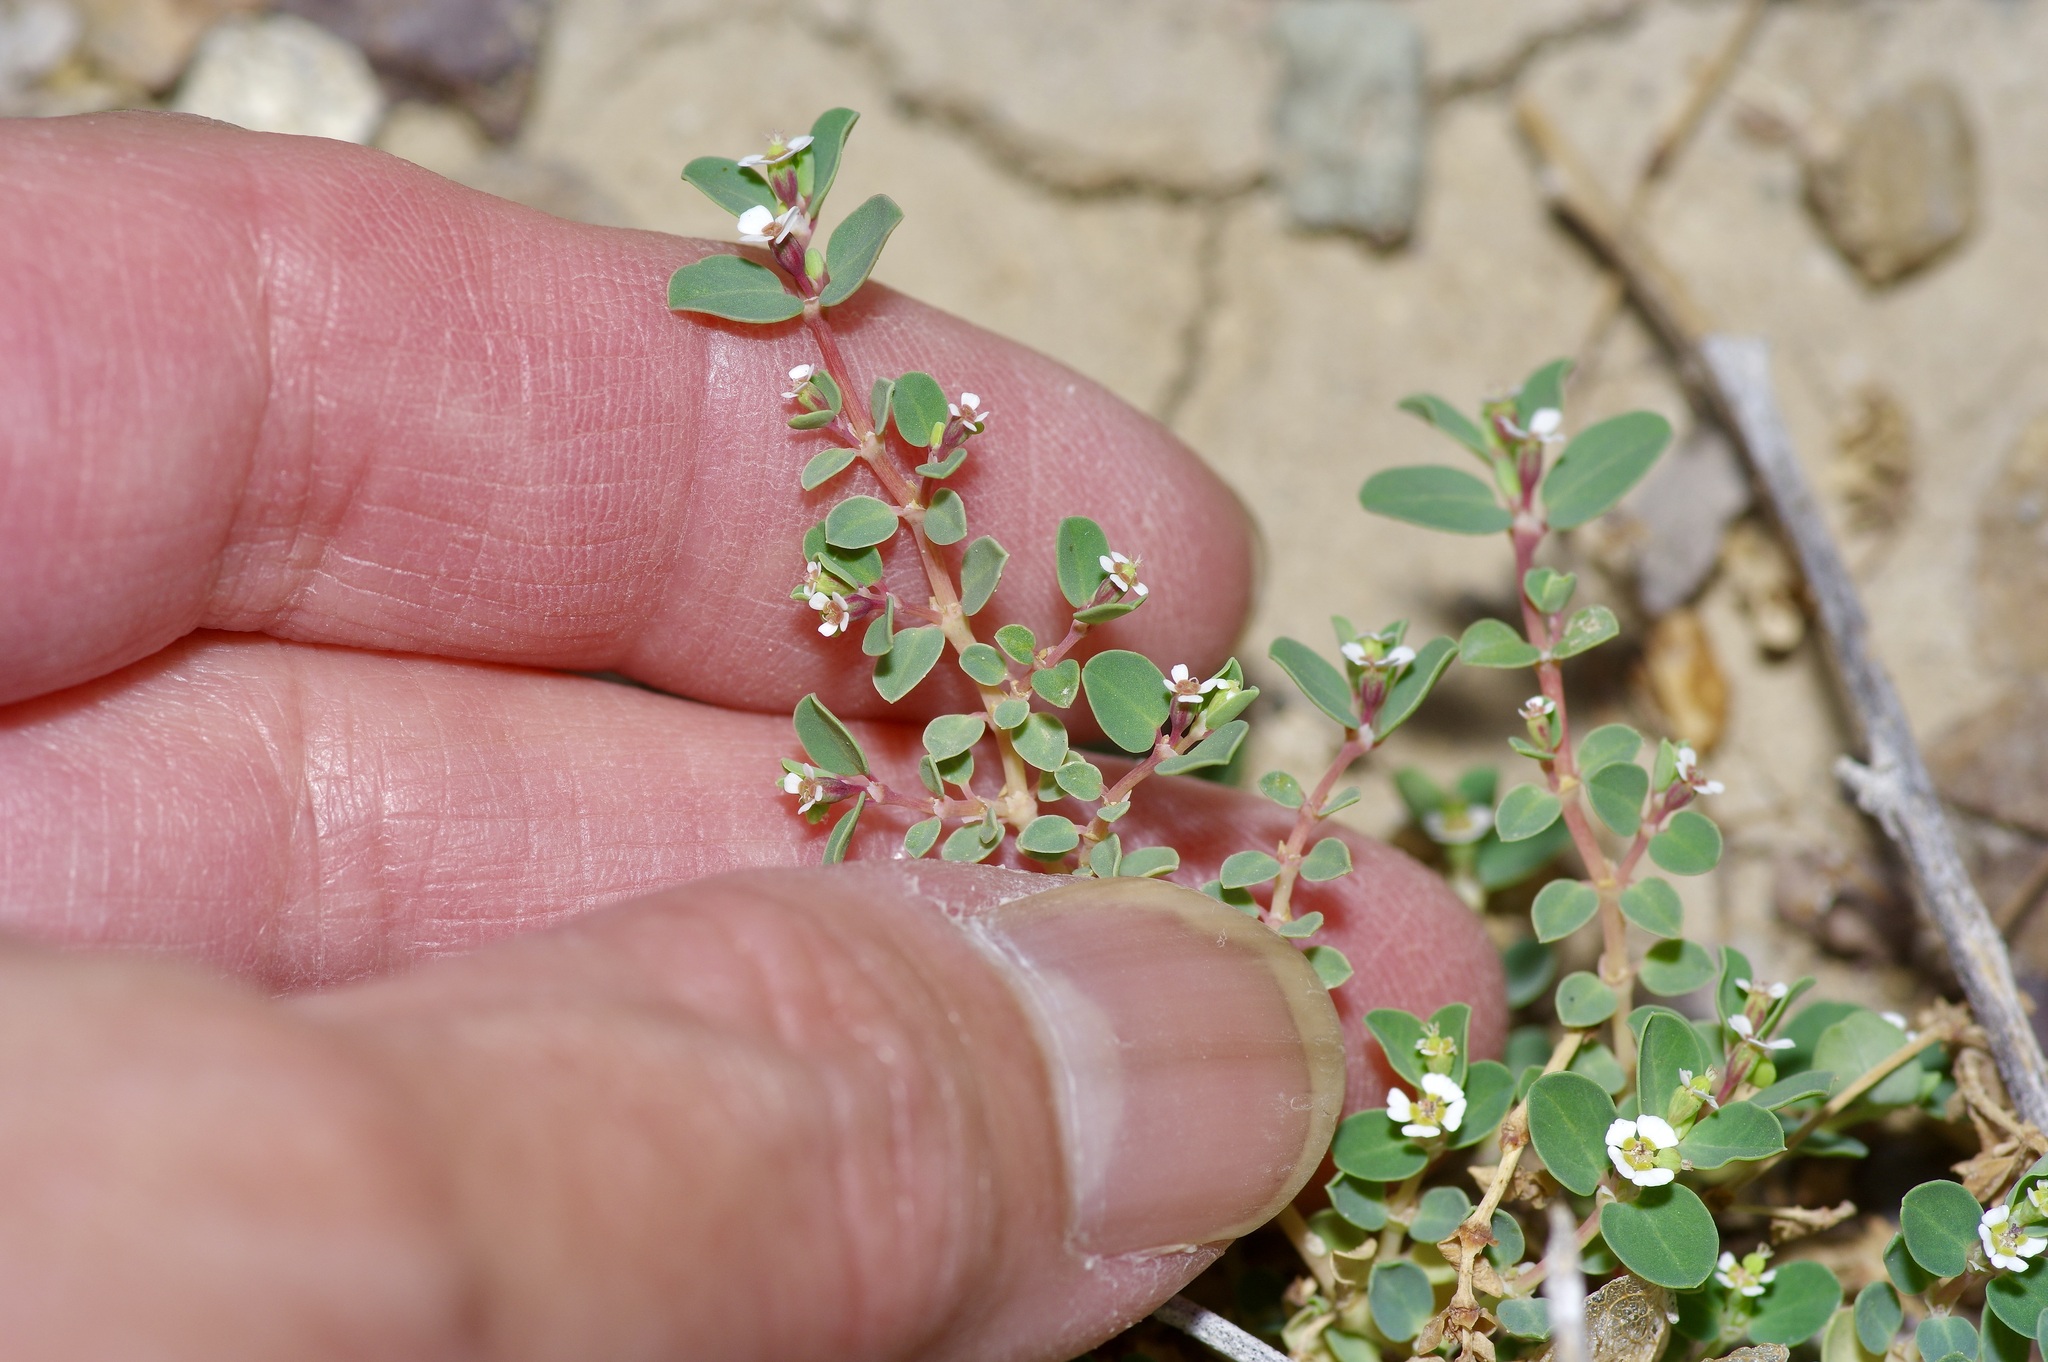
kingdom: Plantae
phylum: Tracheophyta
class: Magnoliopsida
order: Malpighiales
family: Euphorbiaceae
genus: Euphorbia
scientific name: Euphorbia albomarginata
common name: Whitemargin sandmat
